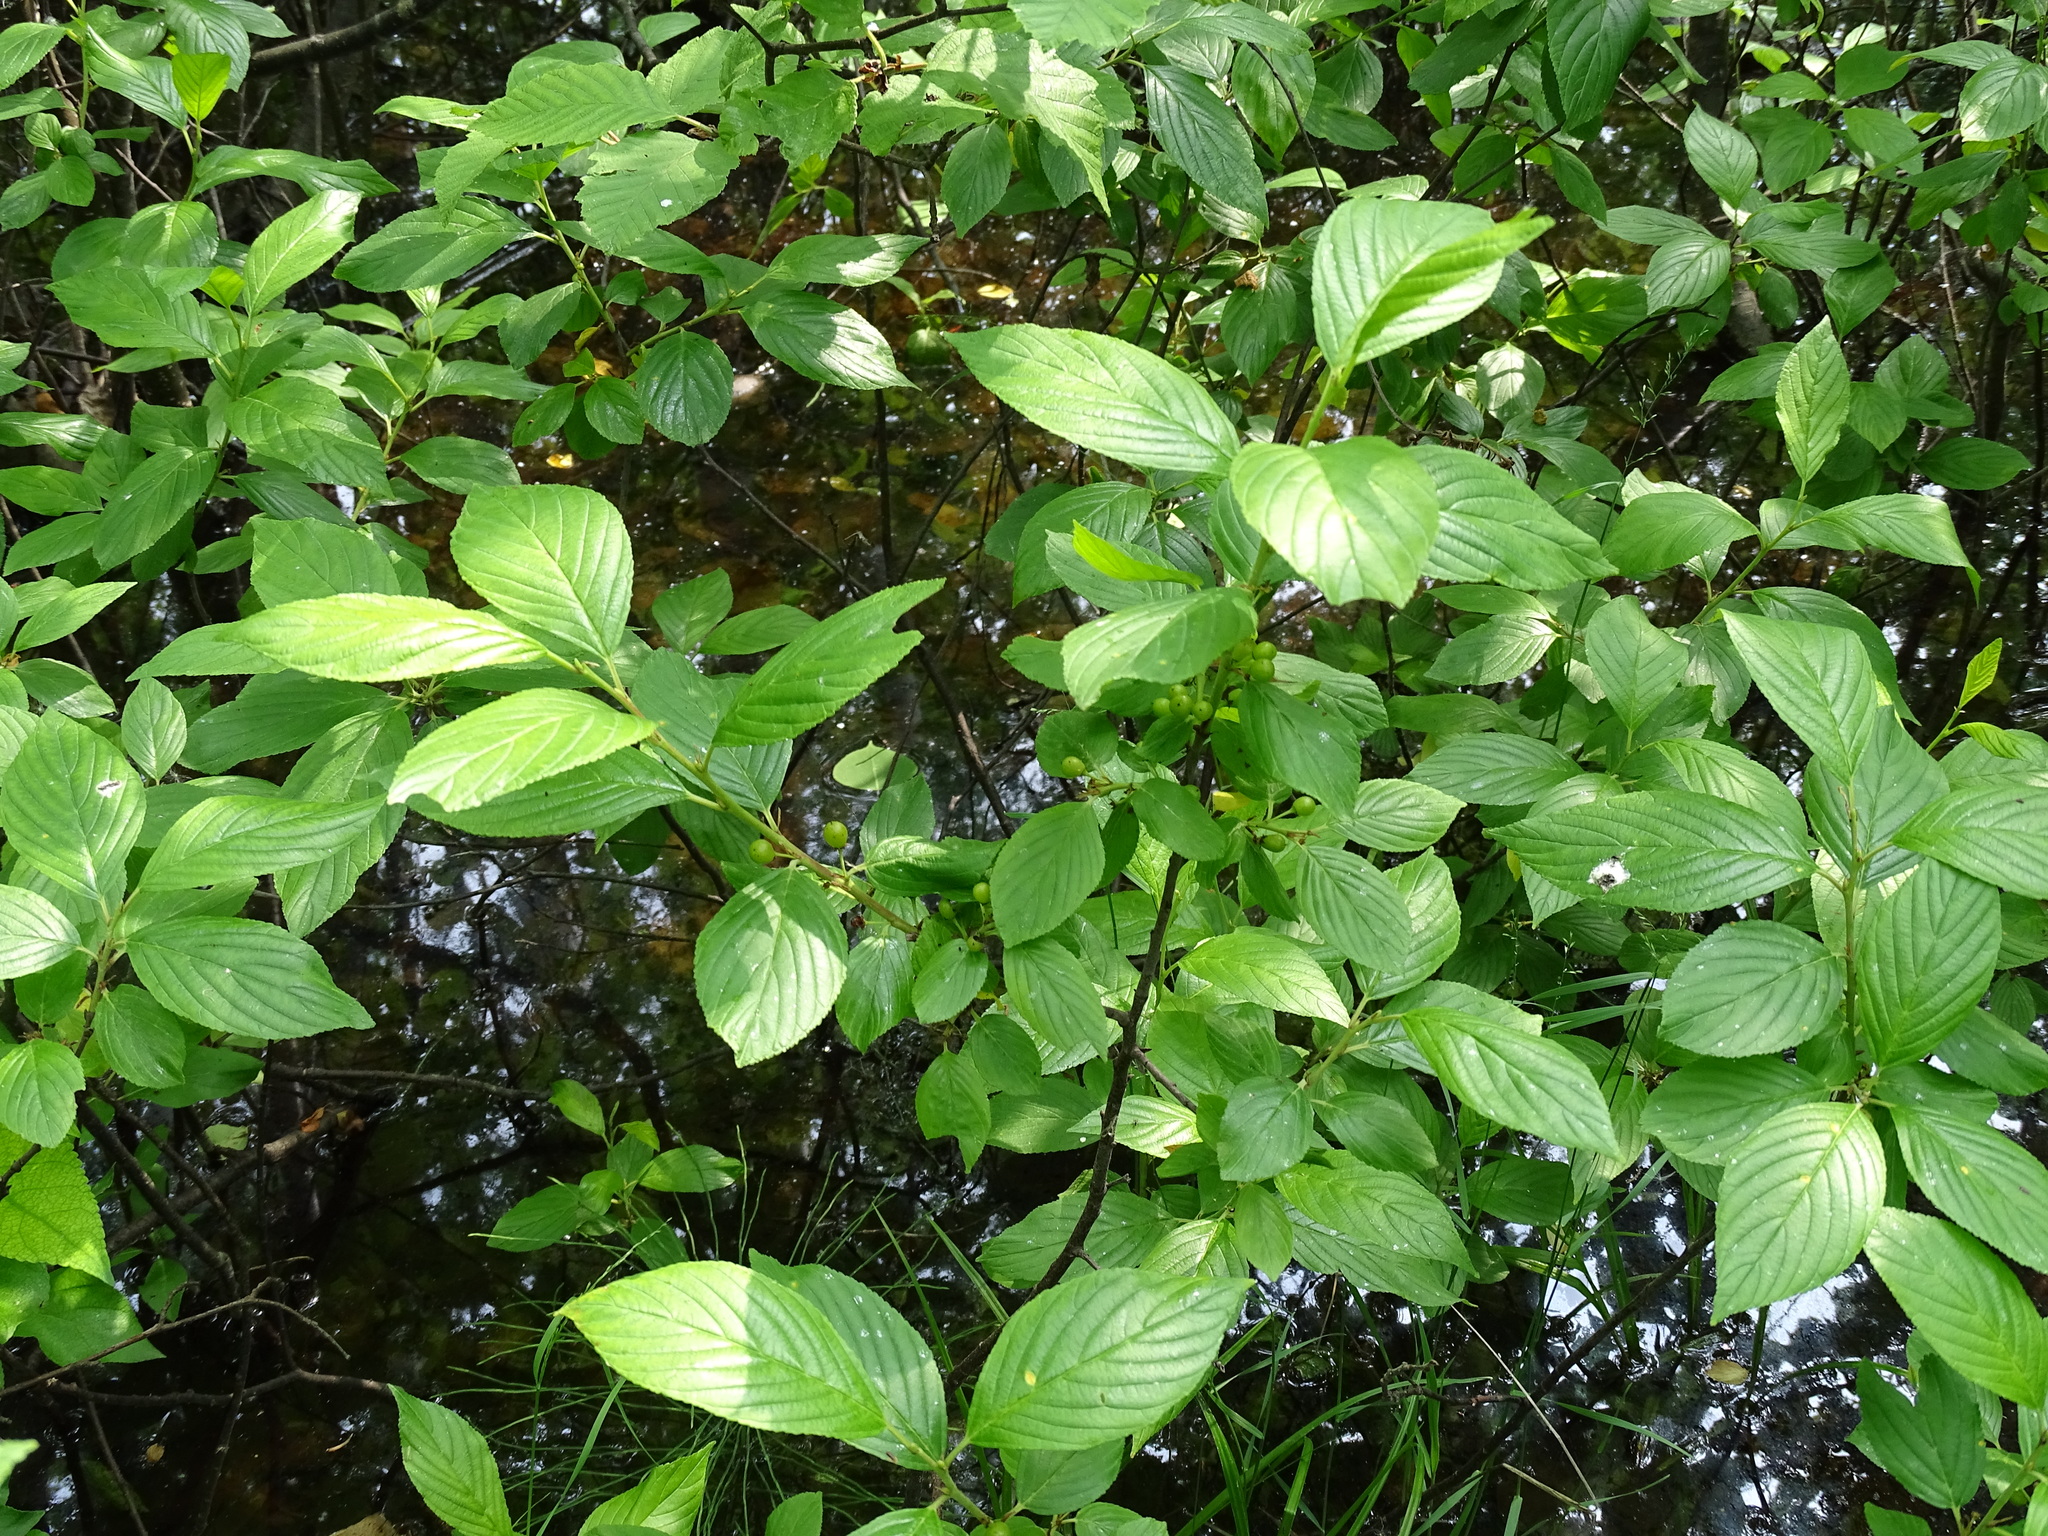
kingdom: Plantae
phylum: Tracheophyta
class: Magnoliopsida
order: Rosales
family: Rhamnaceae
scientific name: Rhamnaceae
